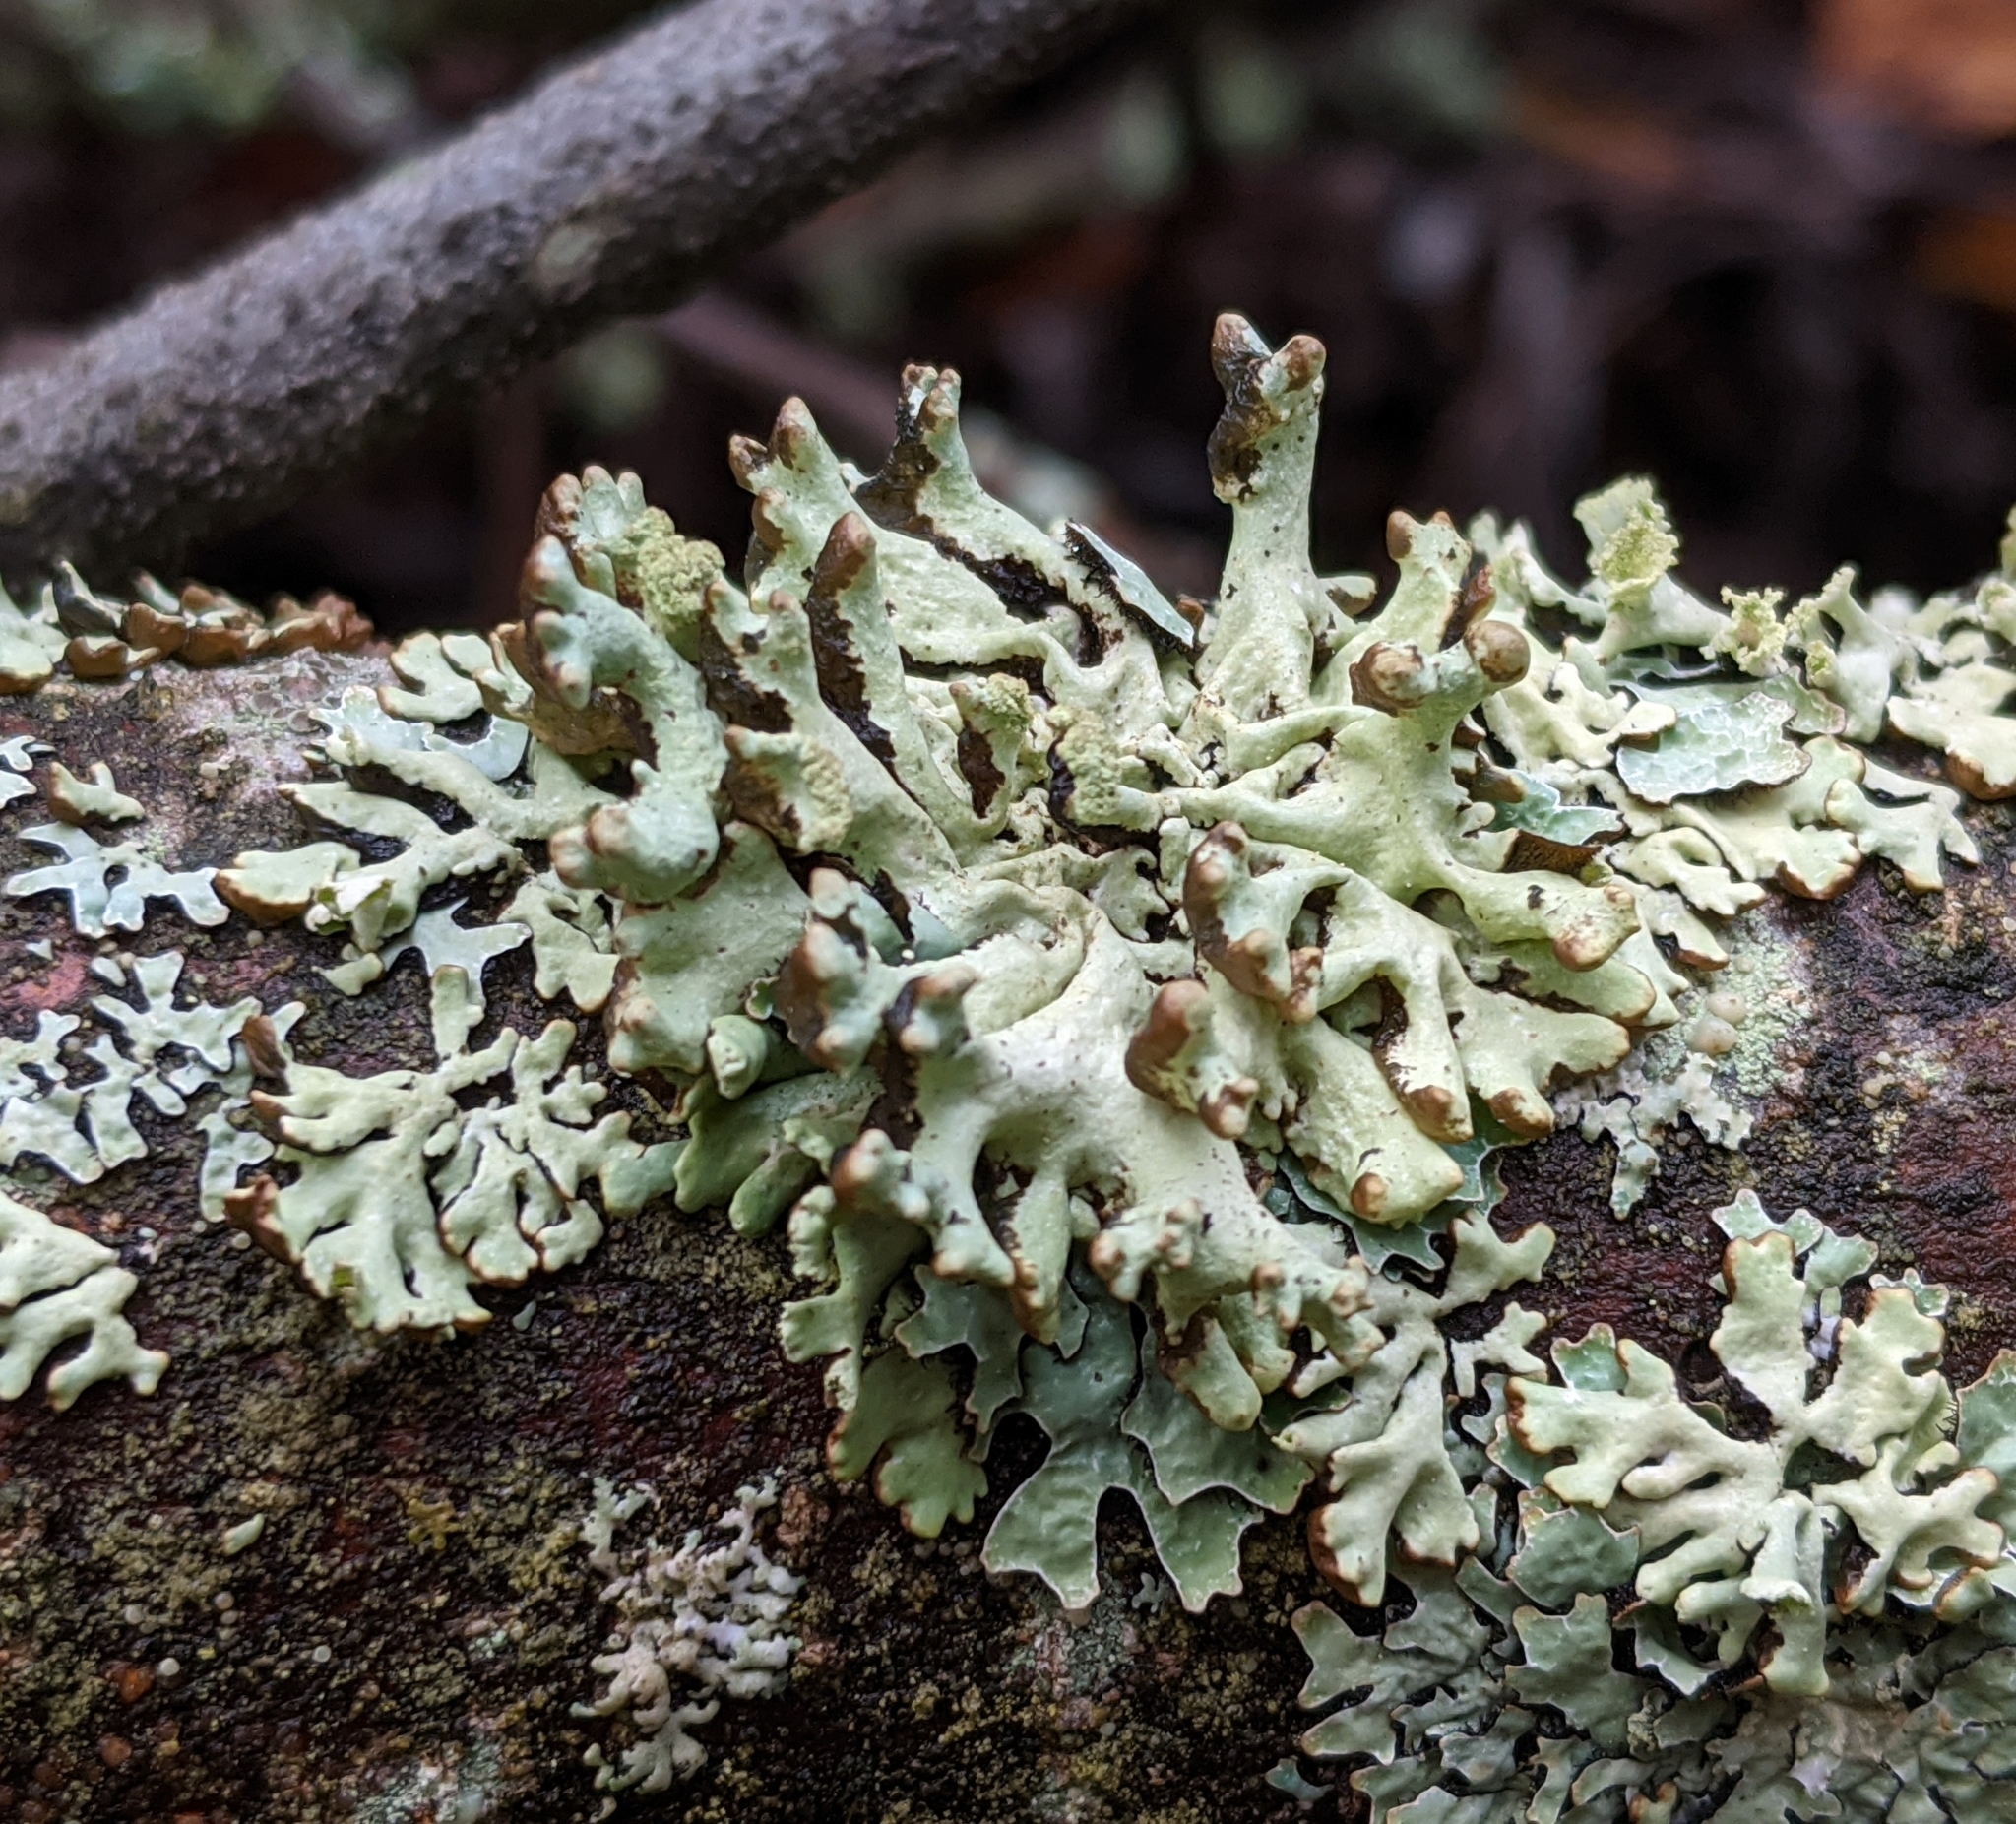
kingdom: Fungi
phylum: Ascomycota
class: Lecanoromycetes
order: Lecanorales
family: Parmeliaceae
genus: Hypogymnia
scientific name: Hypogymnia tubulosa
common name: Powder-headed tube lichen
